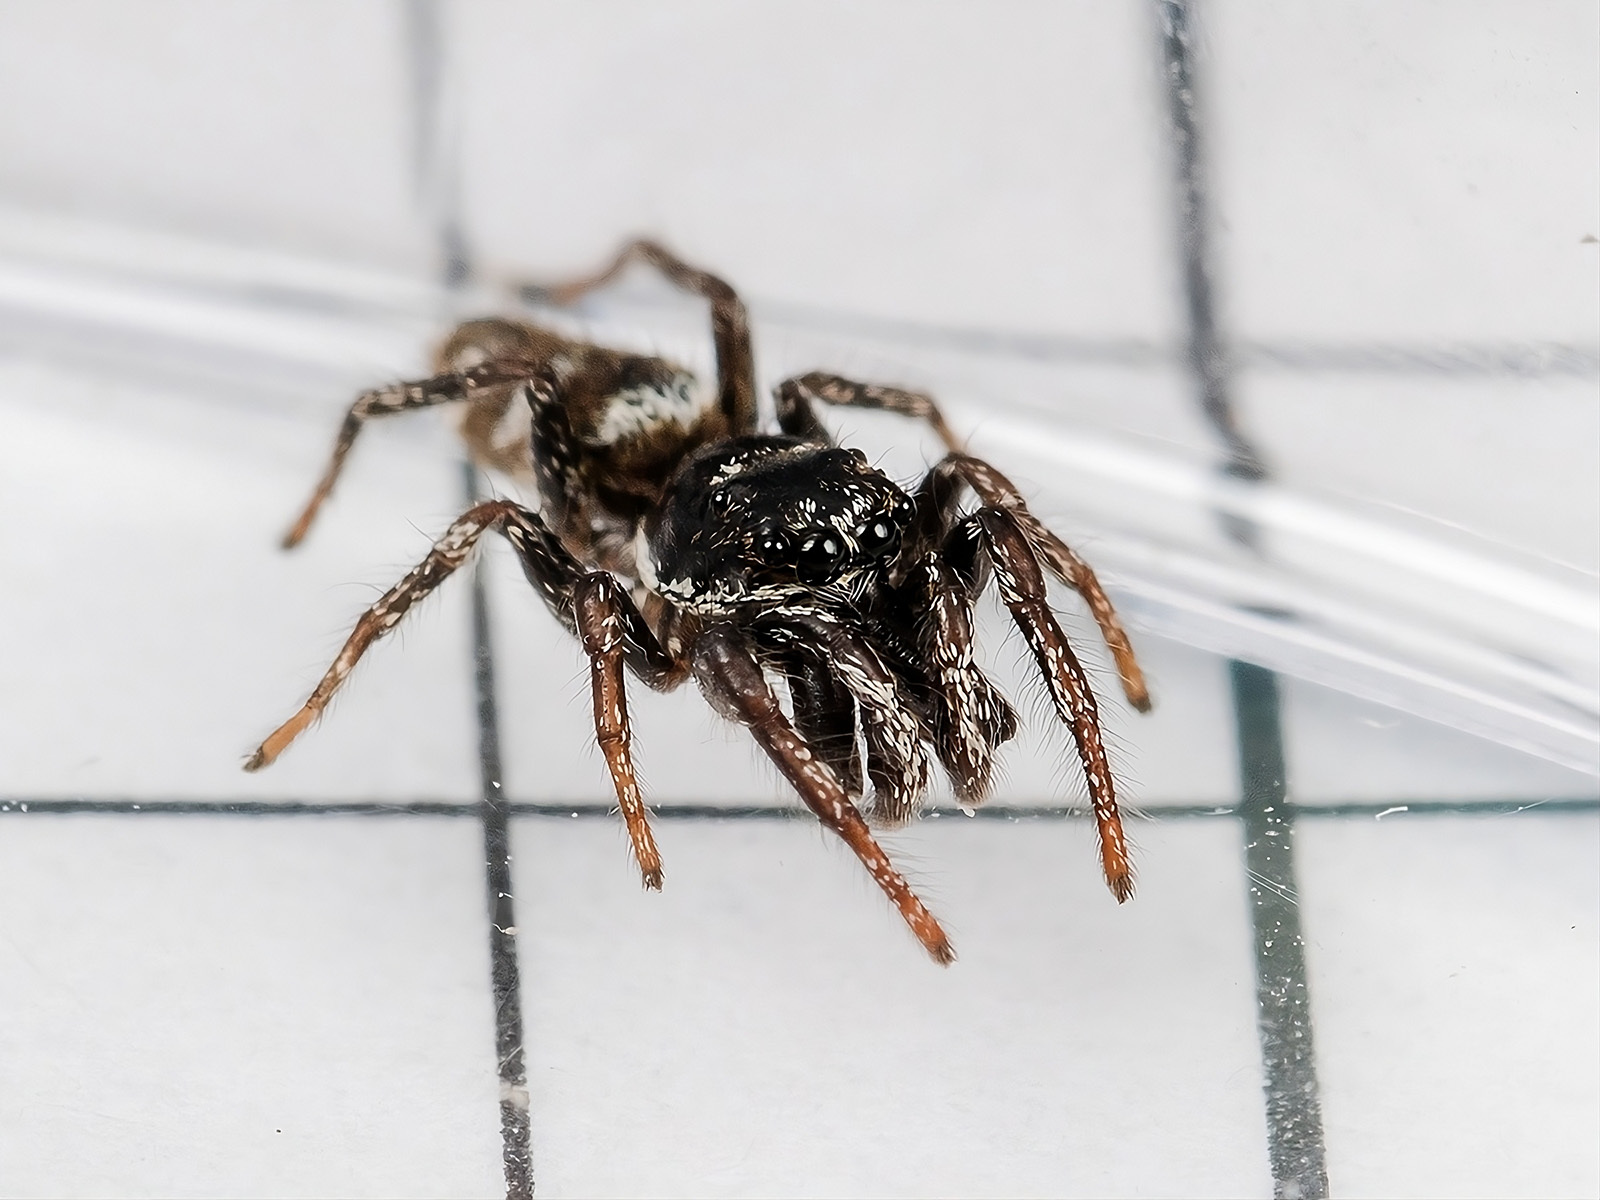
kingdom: Animalia
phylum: Arthropoda
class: Arachnida
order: Araneae
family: Salticidae
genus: Salticus
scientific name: Salticus scenicus
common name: Zebra jumper
